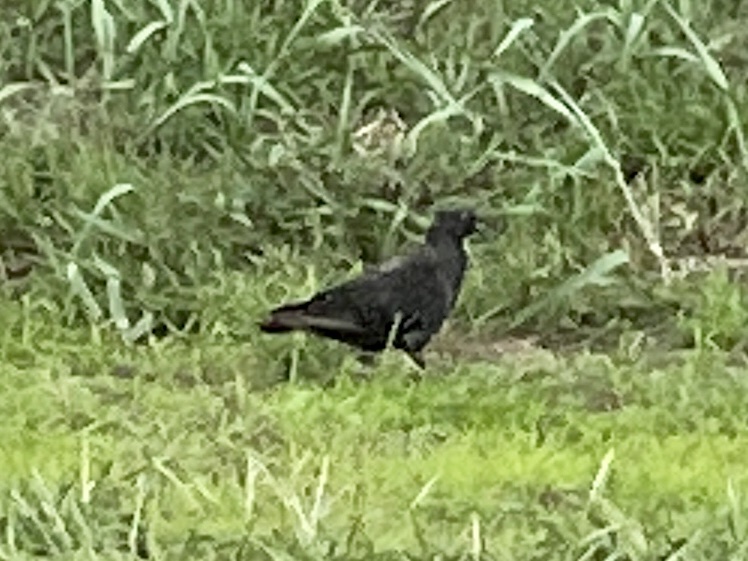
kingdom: Animalia
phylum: Chordata
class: Aves
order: Columbiformes
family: Columbidae
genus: Columba
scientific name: Columba livia
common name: Rock pigeon
